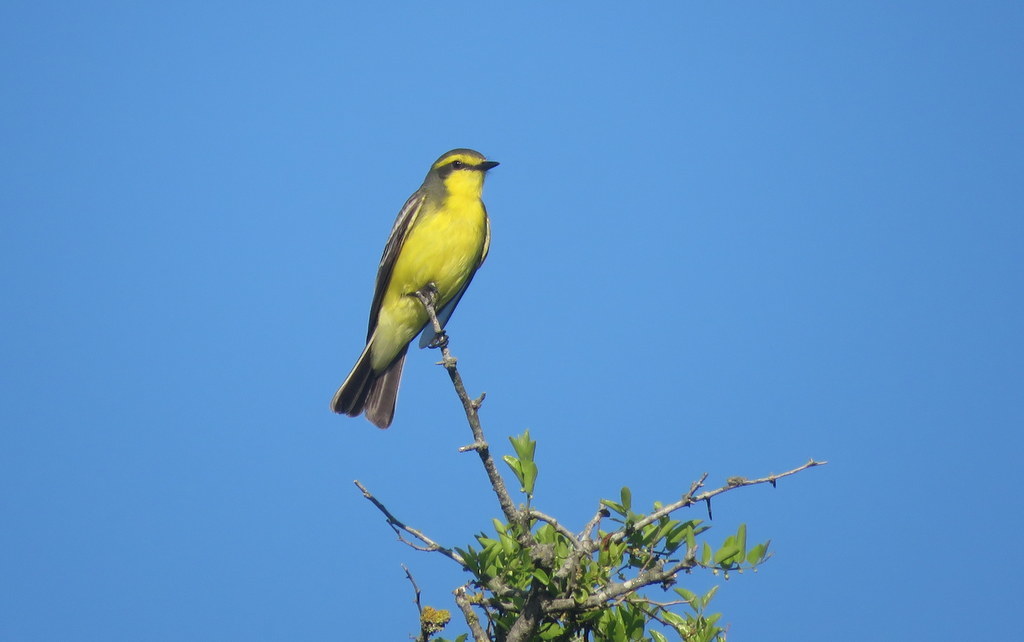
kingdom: Animalia
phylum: Chordata
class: Aves
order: Passeriformes
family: Tyrannidae
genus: Satrapa
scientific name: Satrapa icterophrys
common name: Yellow-browed tyrant
